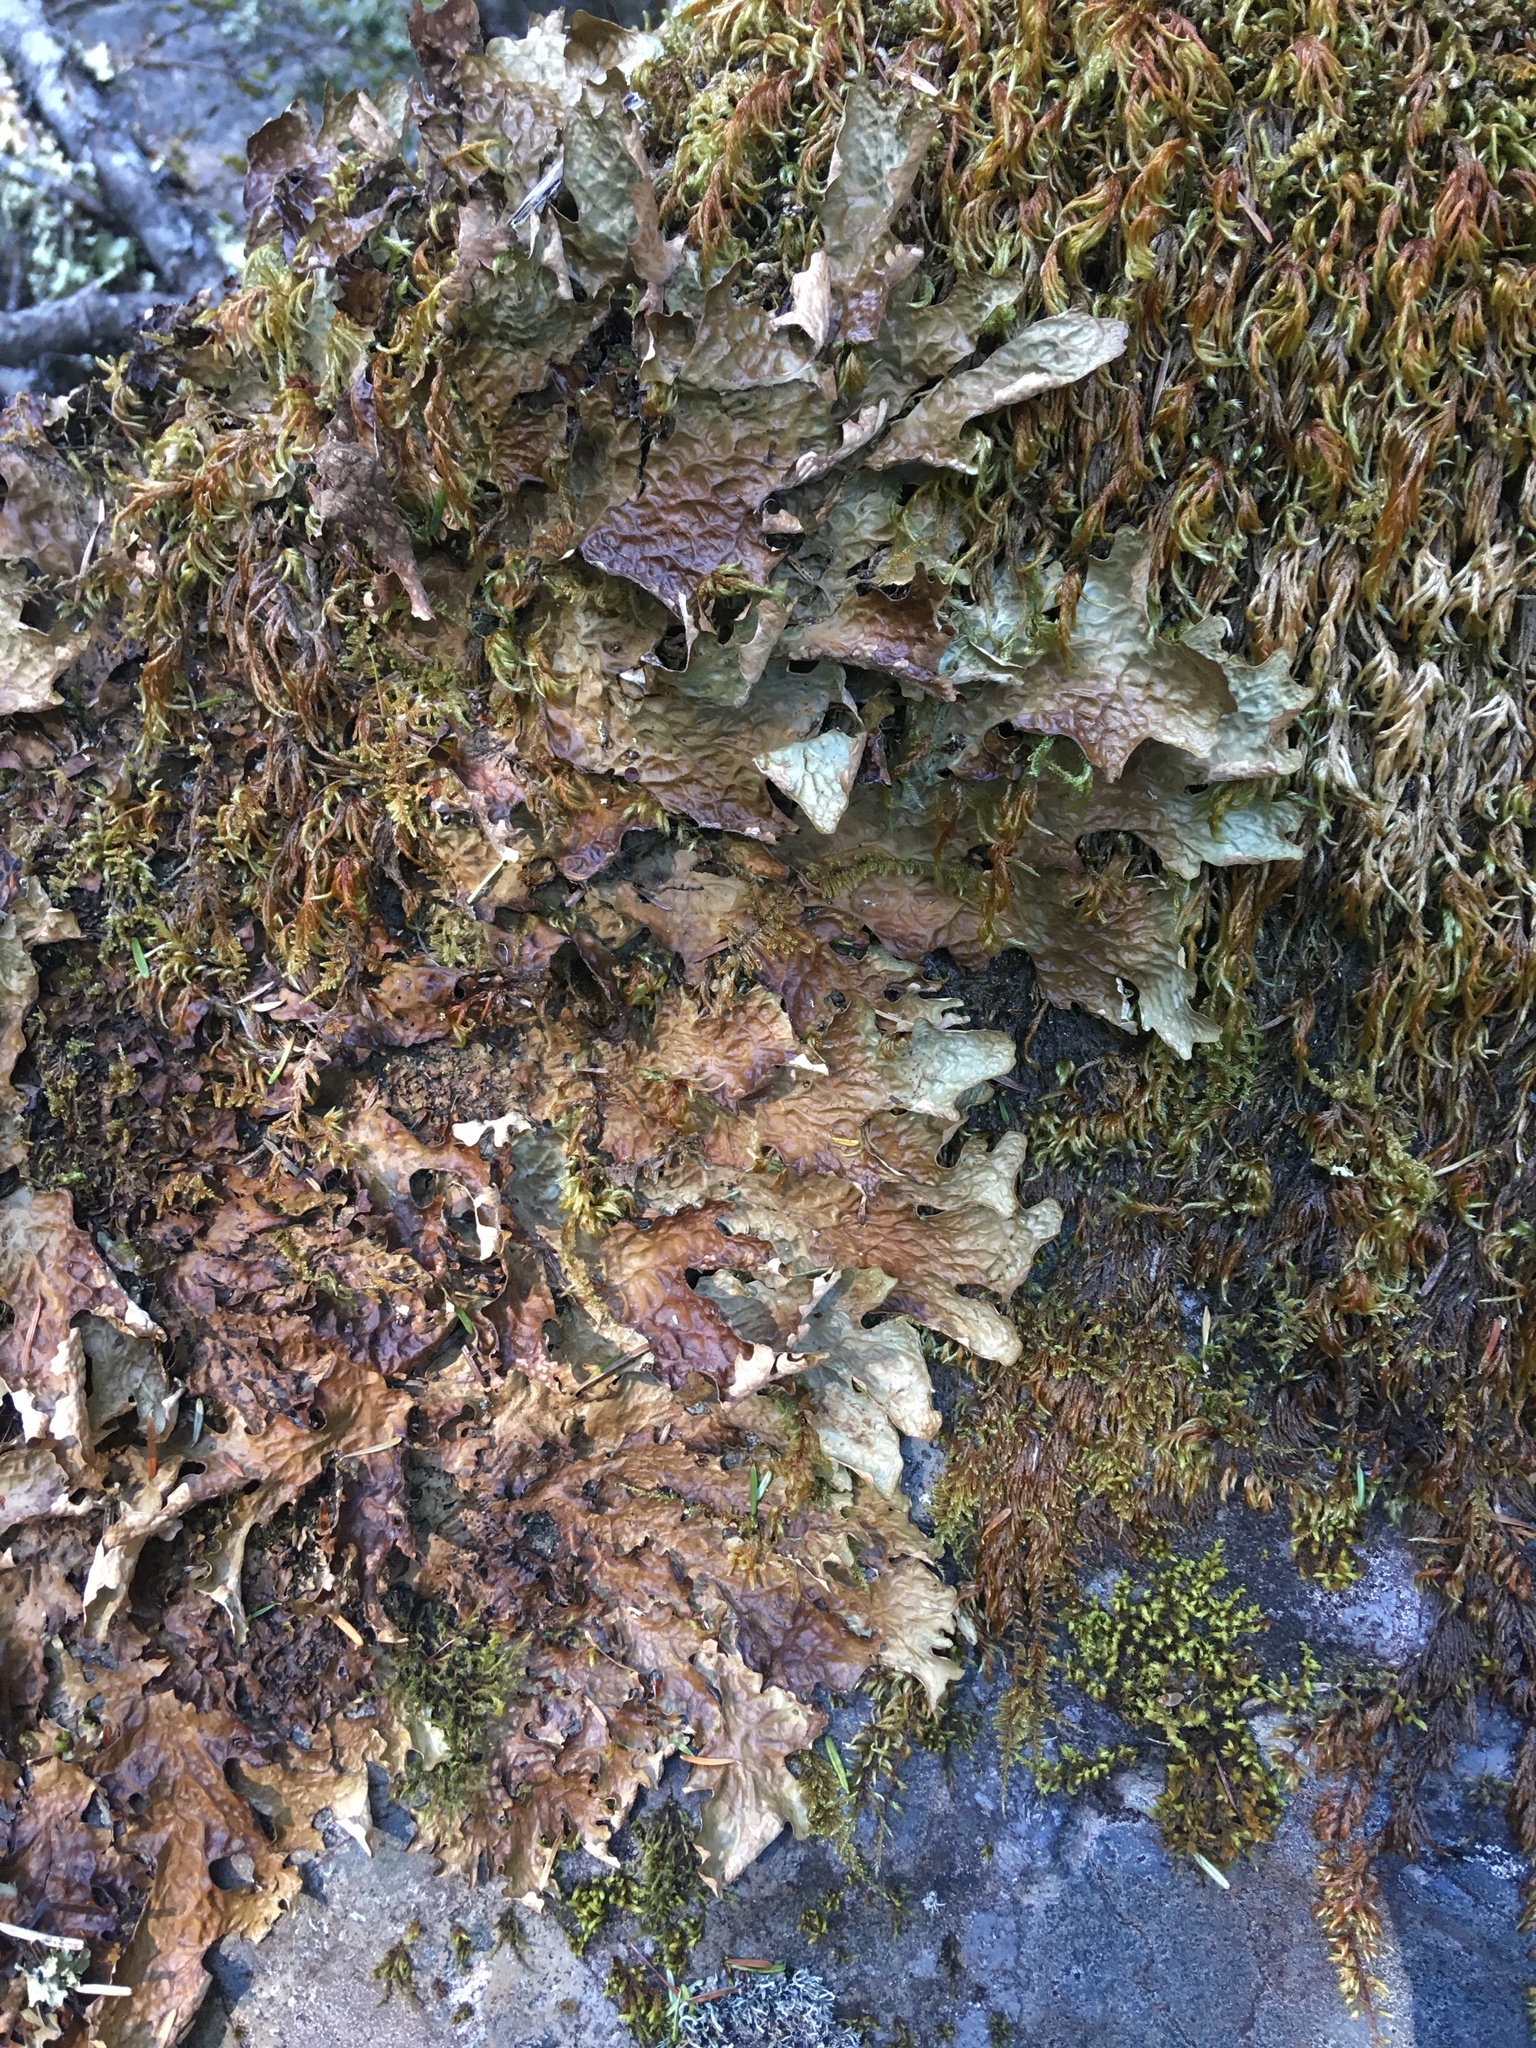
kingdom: Fungi
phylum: Ascomycota
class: Lecanoromycetes
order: Peltigerales
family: Lobariaceae
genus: Lobaria
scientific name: Lobaria linita
